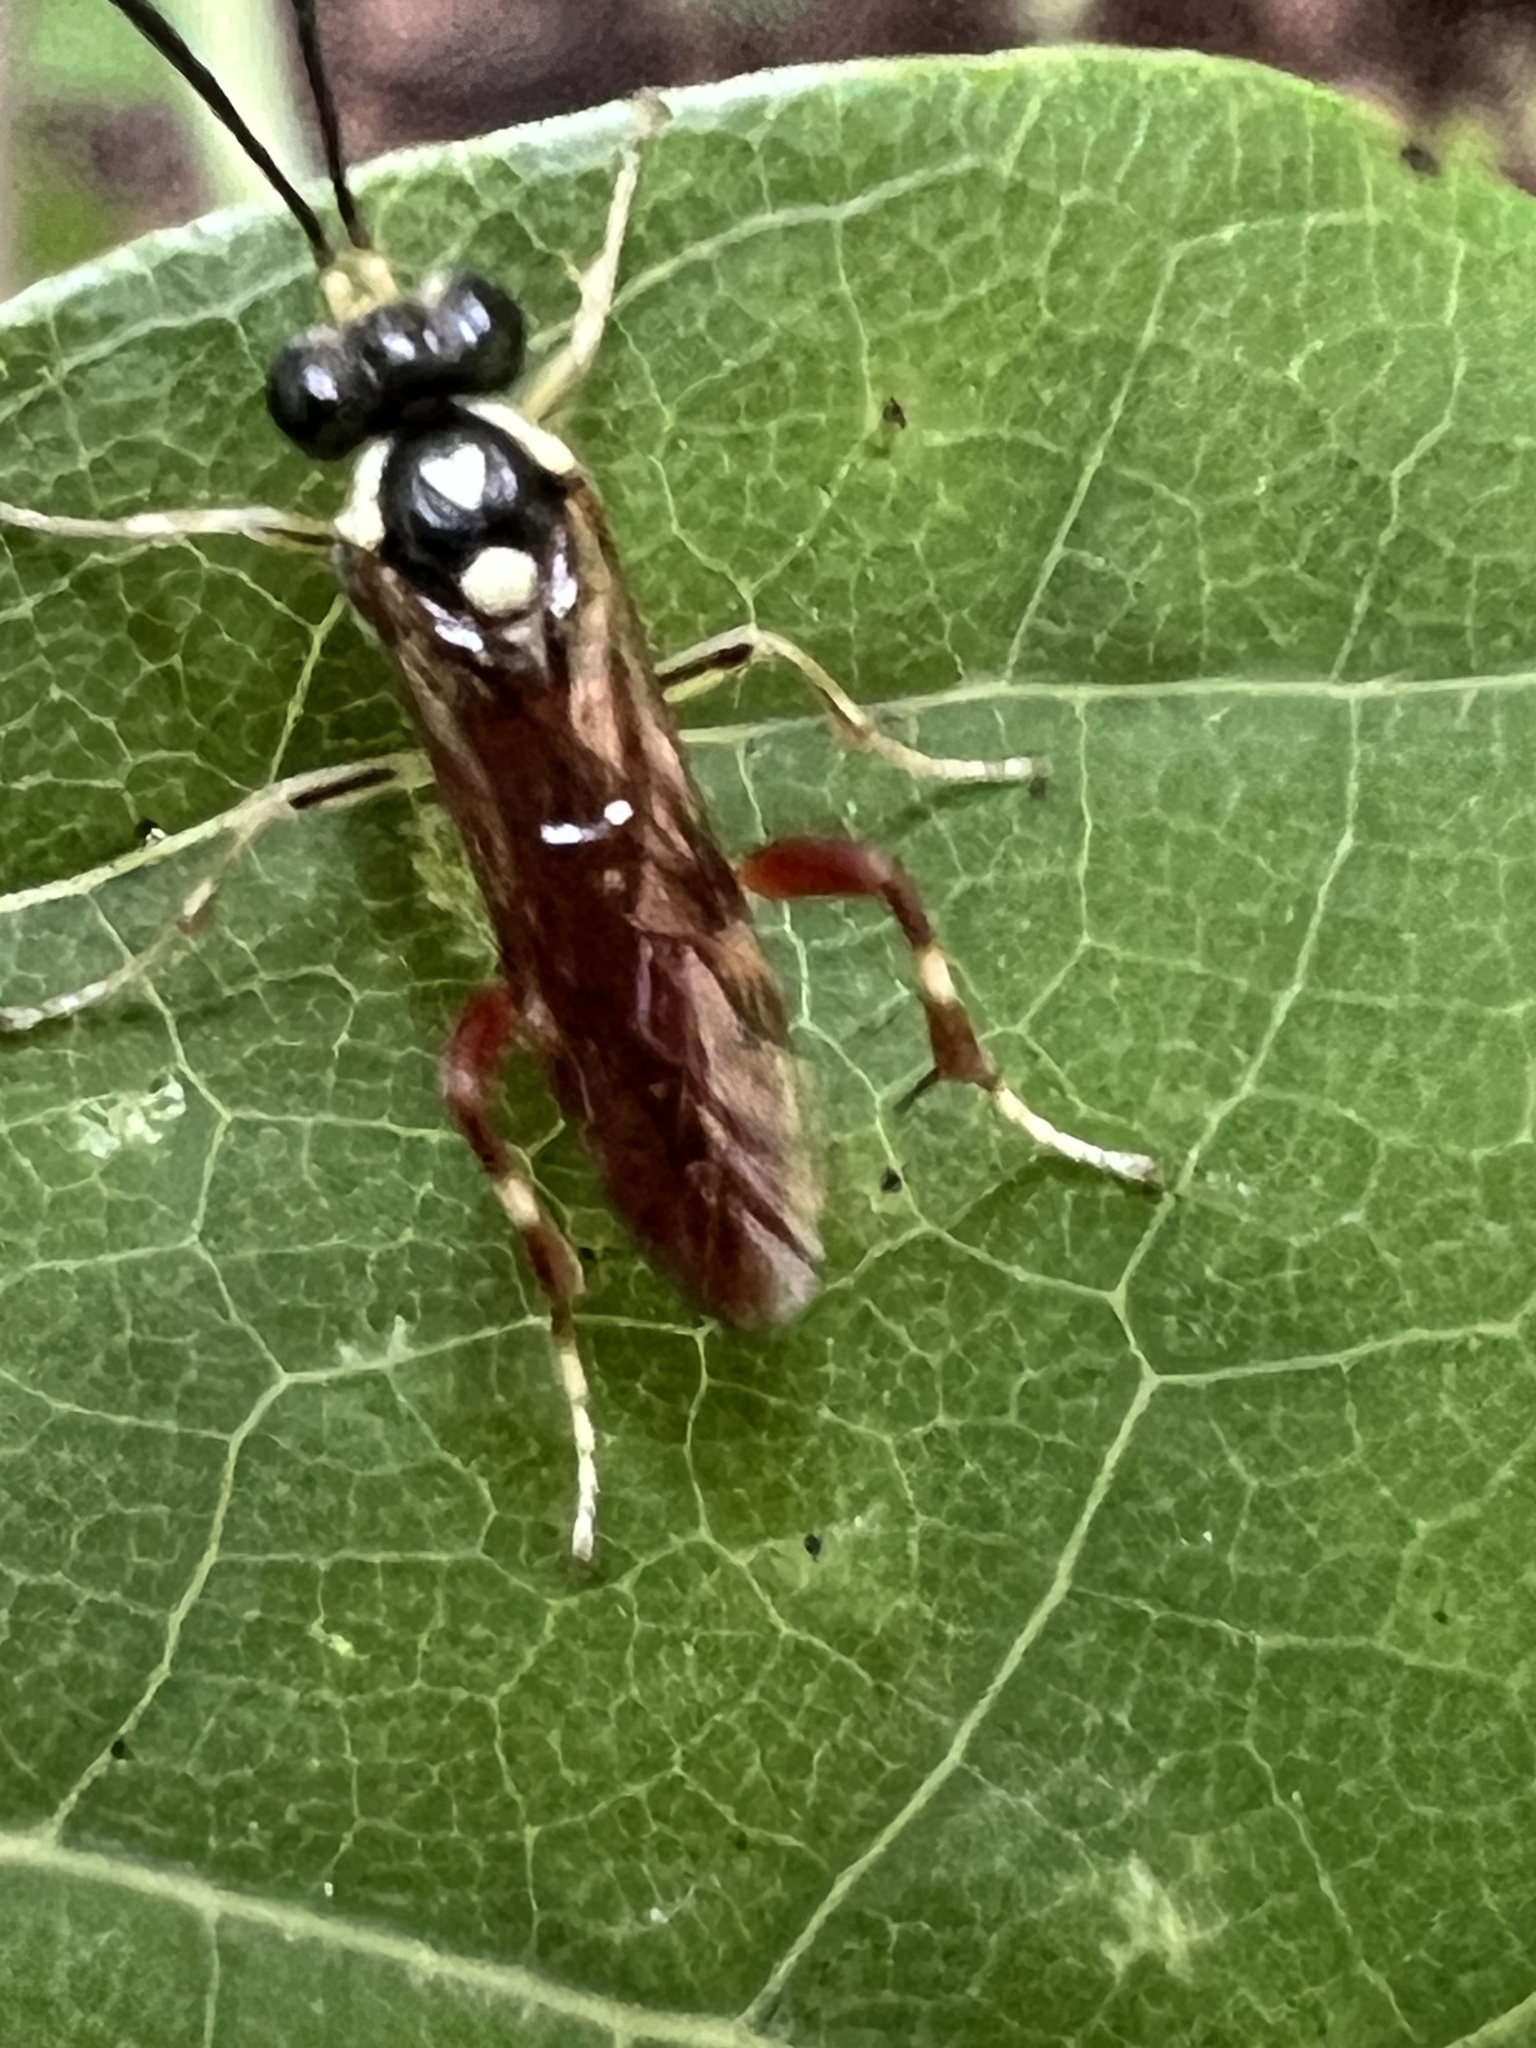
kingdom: Animalia
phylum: Arthropoda
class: Insecta
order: Hymenoptera
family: Tenthredinidae
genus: Macrophya
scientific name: Macrophya goniphora
